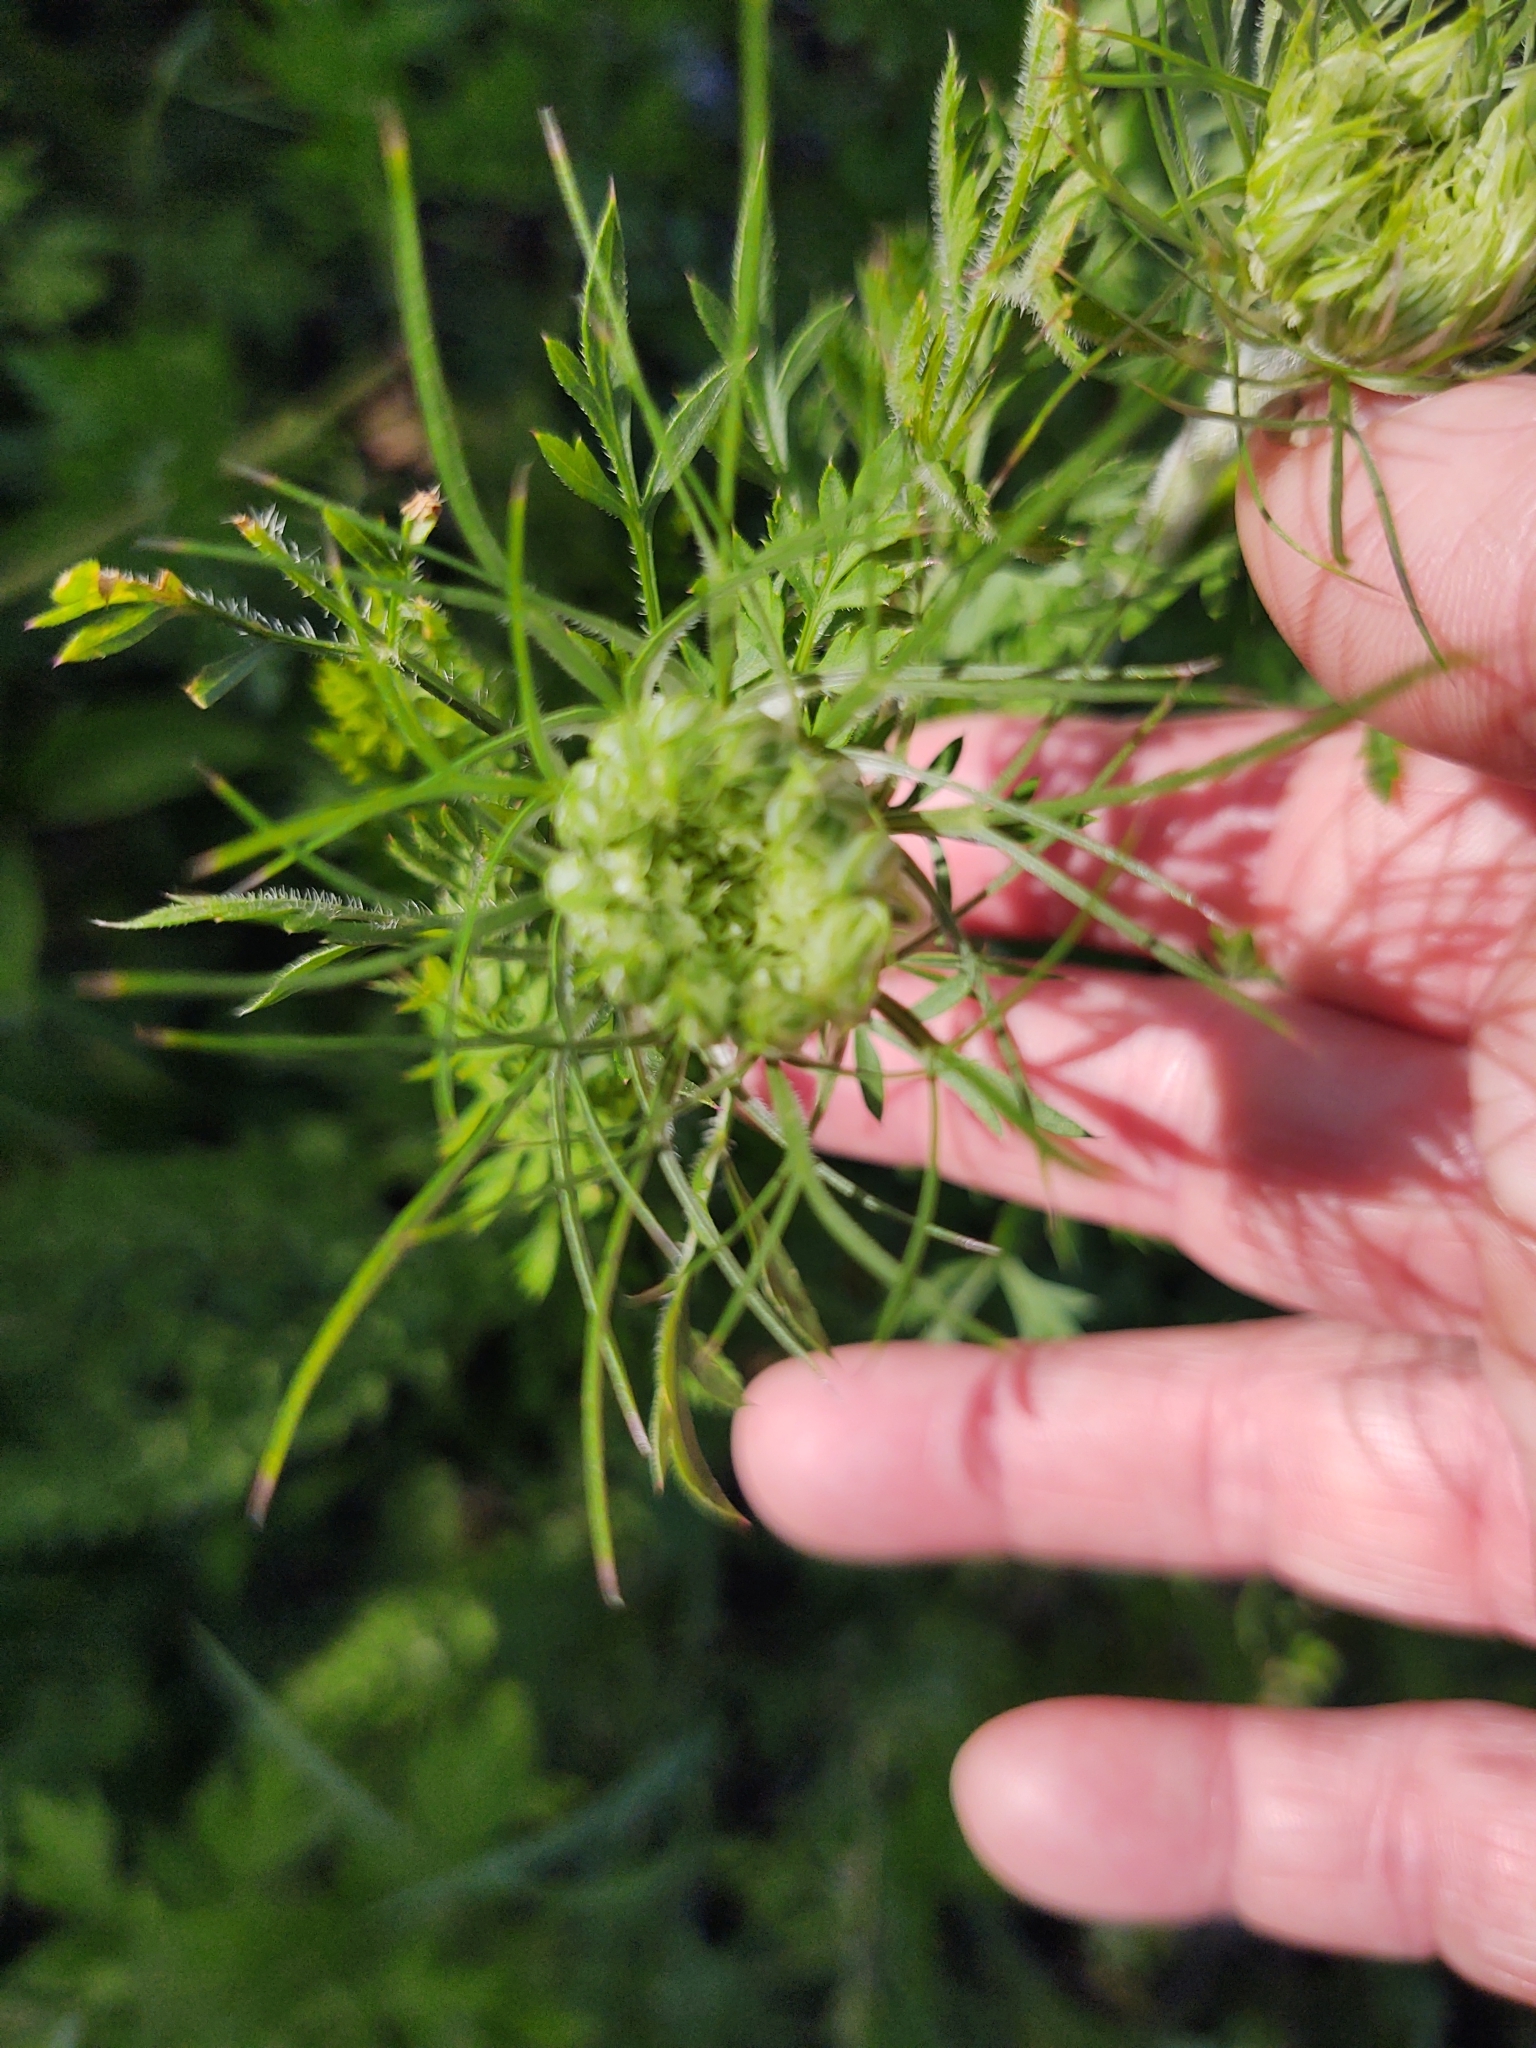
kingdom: Plantae
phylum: Tracheophyta
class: Magnoliopsida
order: Apiales
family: Apiaceae
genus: Daucus
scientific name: Daucus carota
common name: Wild carrot
